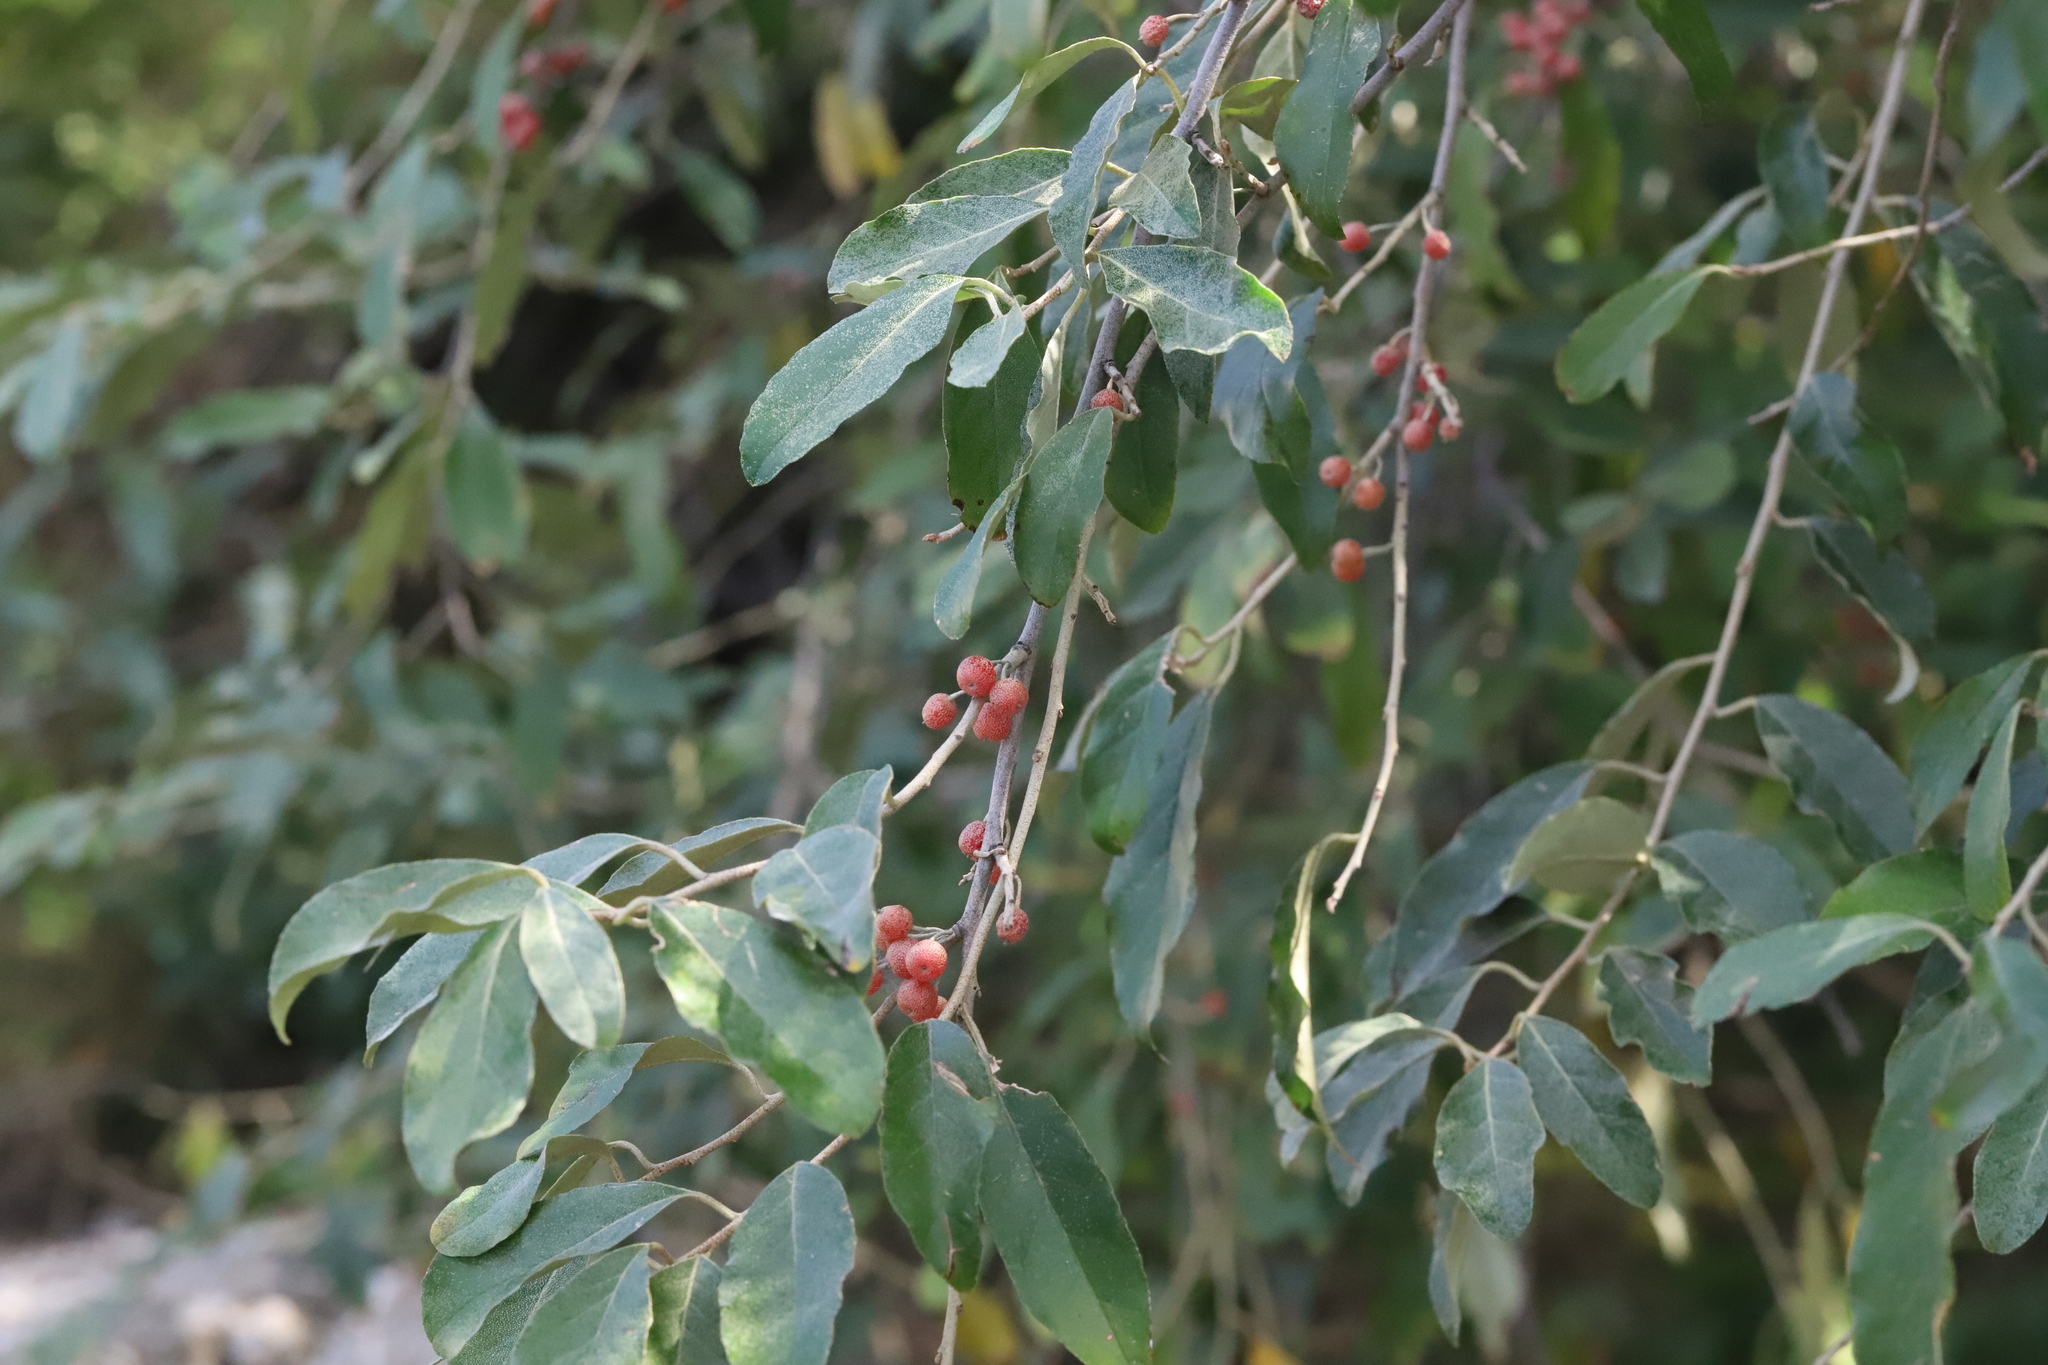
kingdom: Plantae
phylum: Tracheophyta
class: Magnoliopsida
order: Rosales
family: Elaeagnaceae
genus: Elaeagnus
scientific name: Elaeagnus umbellata
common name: Autumn olive
